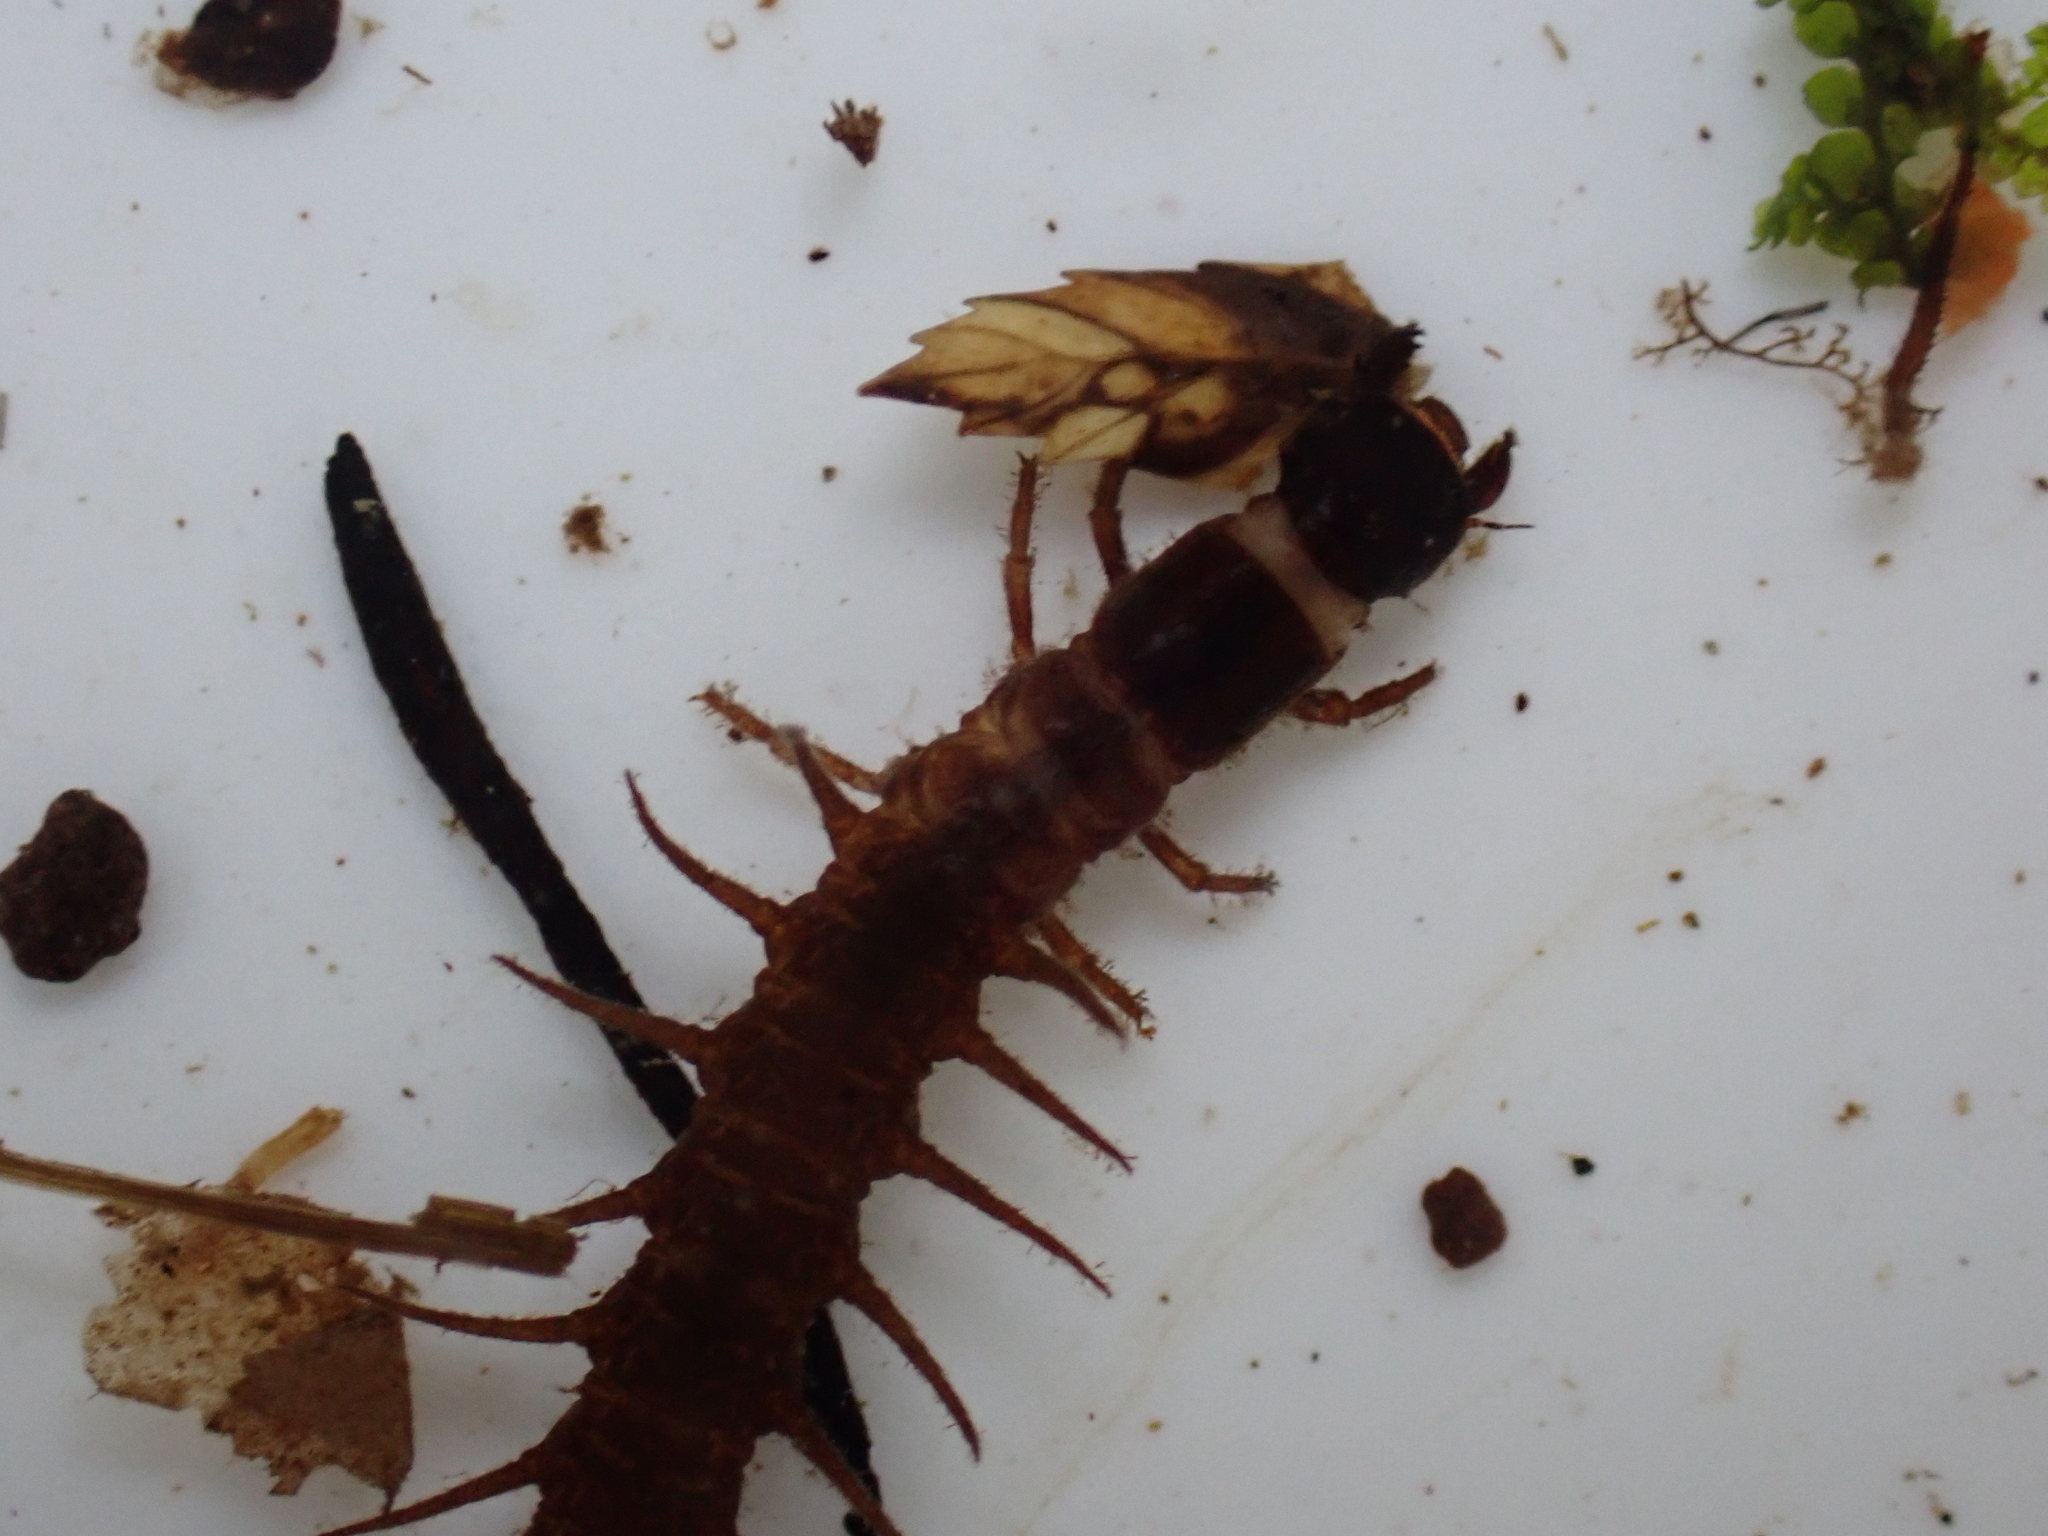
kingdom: Animalia
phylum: Arthropoda
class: Insecta
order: Megaloptera
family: Corydalidae
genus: Archichauliodes
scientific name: Archichauliodes diversus
